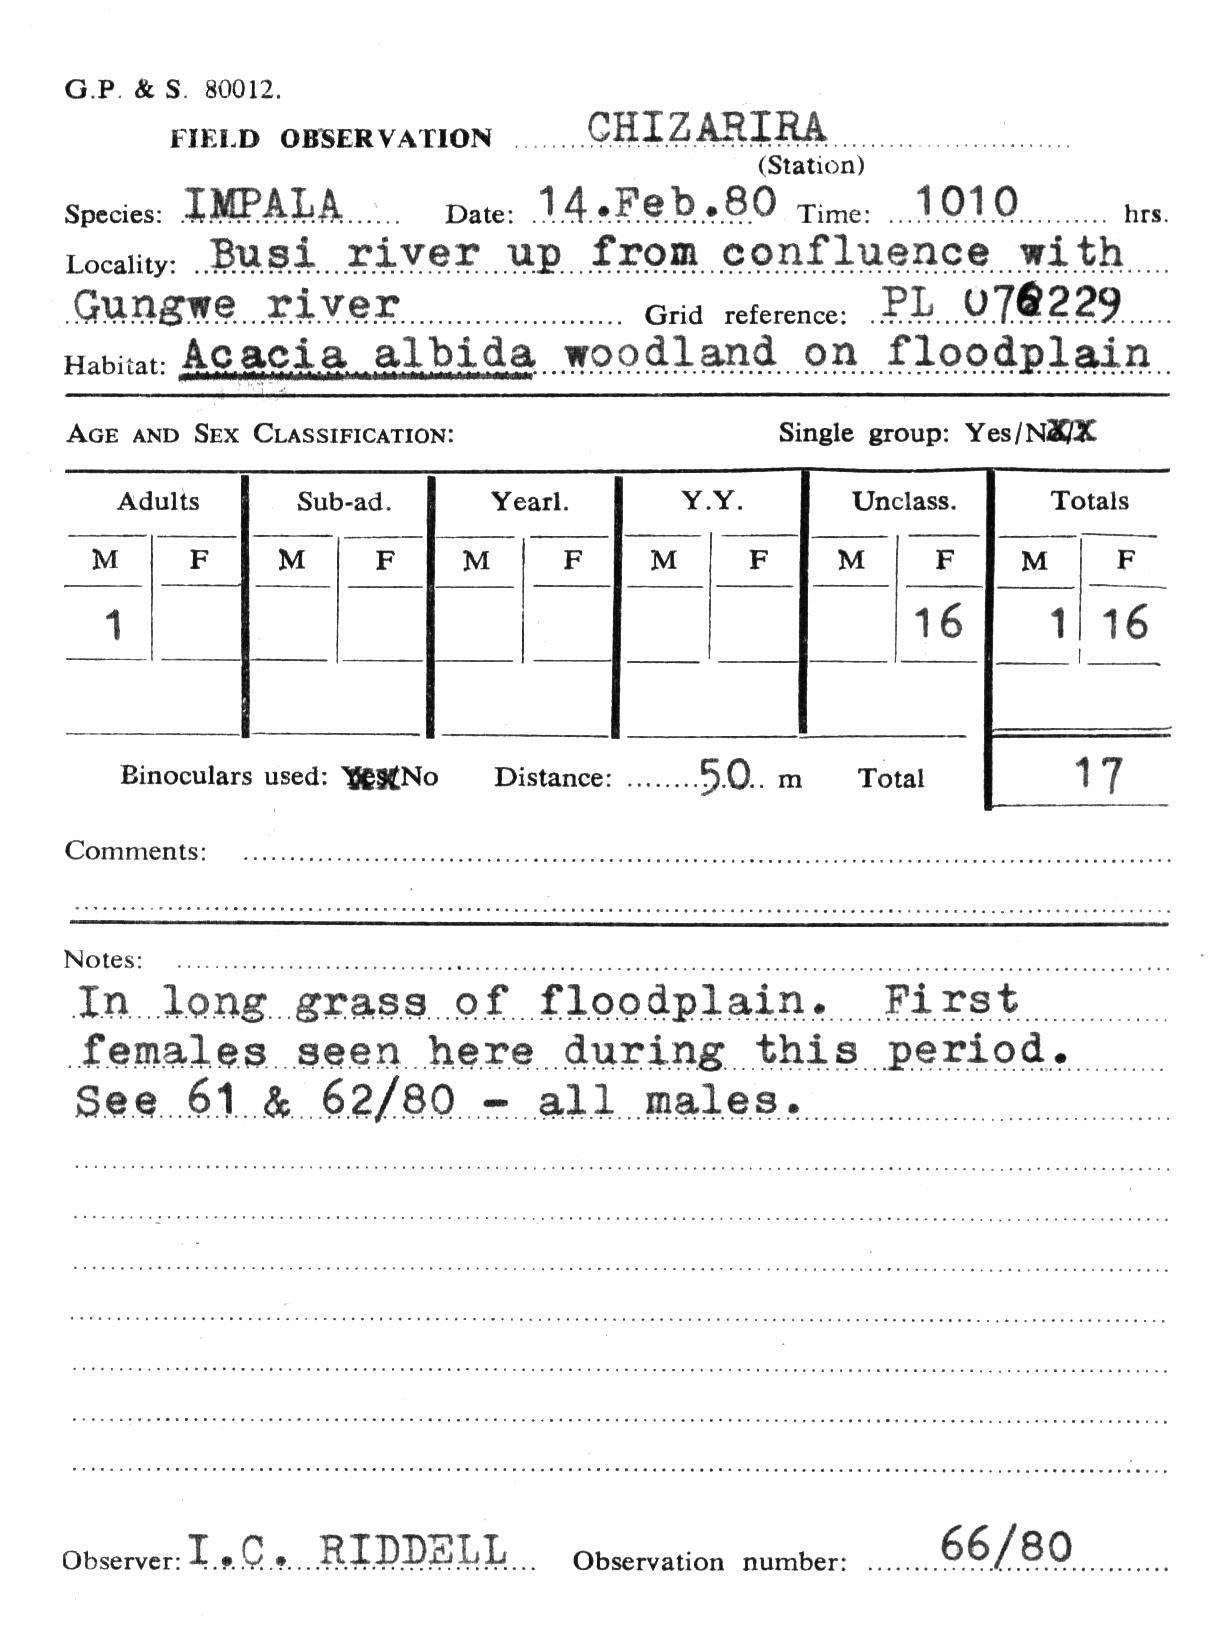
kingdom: Animalia
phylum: Chordata
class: Mammalia
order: Artiodactyla
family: Bovidae
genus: Aepyceros
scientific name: Aepyceros melampus
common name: Impala
